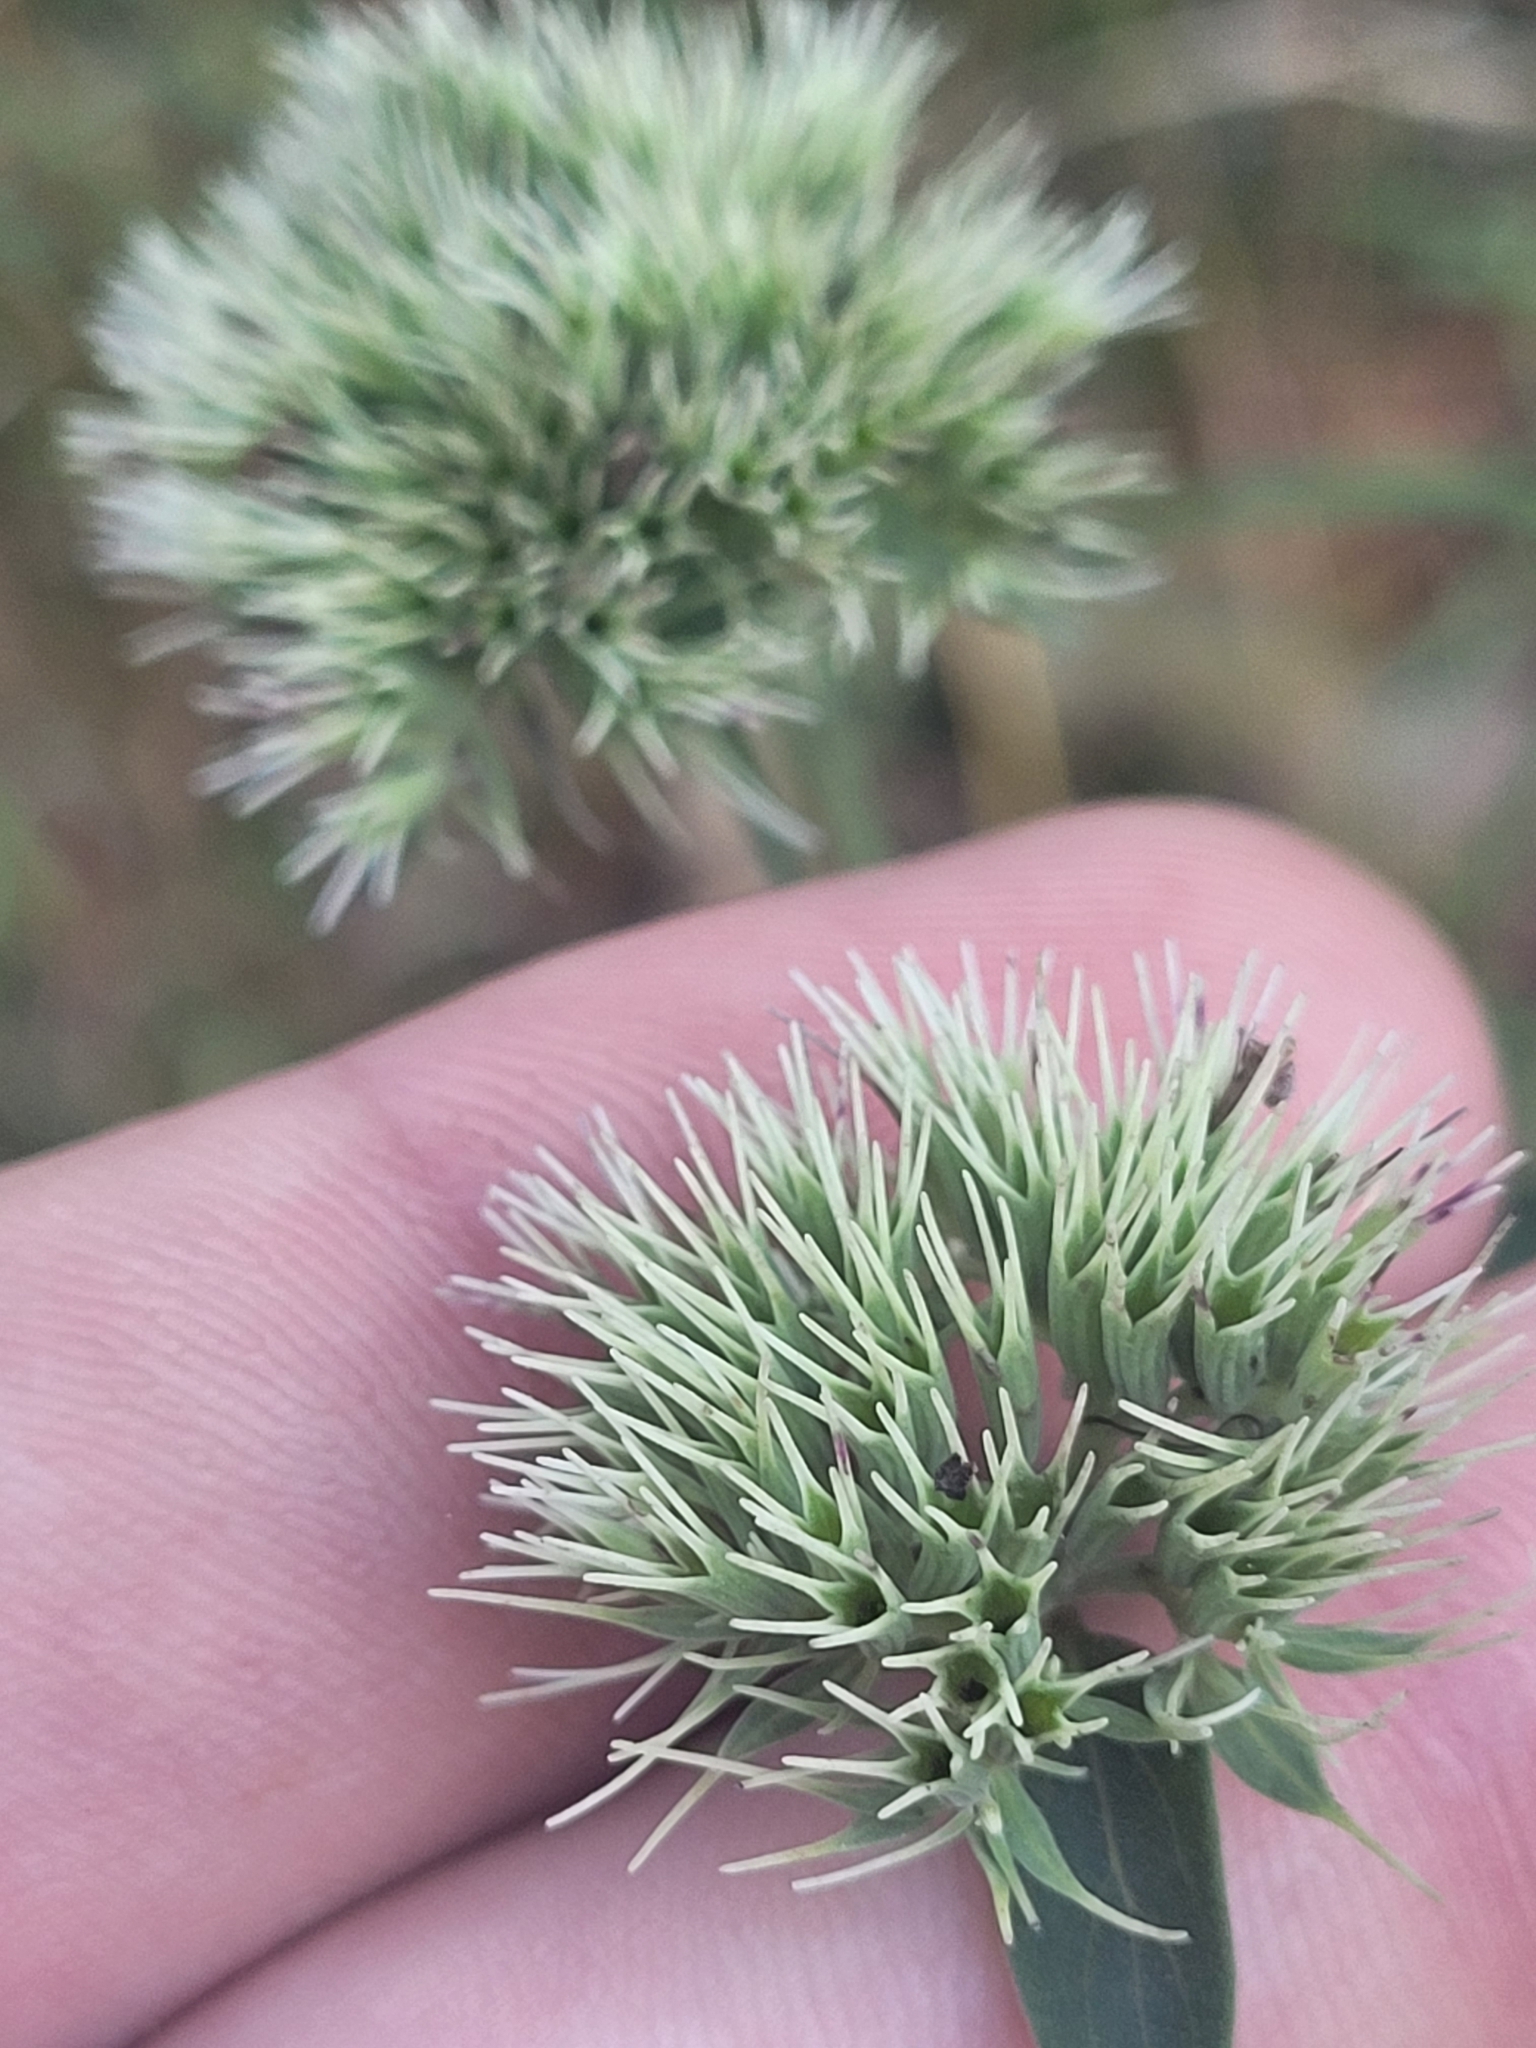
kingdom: Plantae
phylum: Tracheophyta
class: Magnoliopsida
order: Lamiales
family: Lamiaceae
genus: Pycnanthemum
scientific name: Pycnanthemum flexuosum
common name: Appalachian mountain-mint
